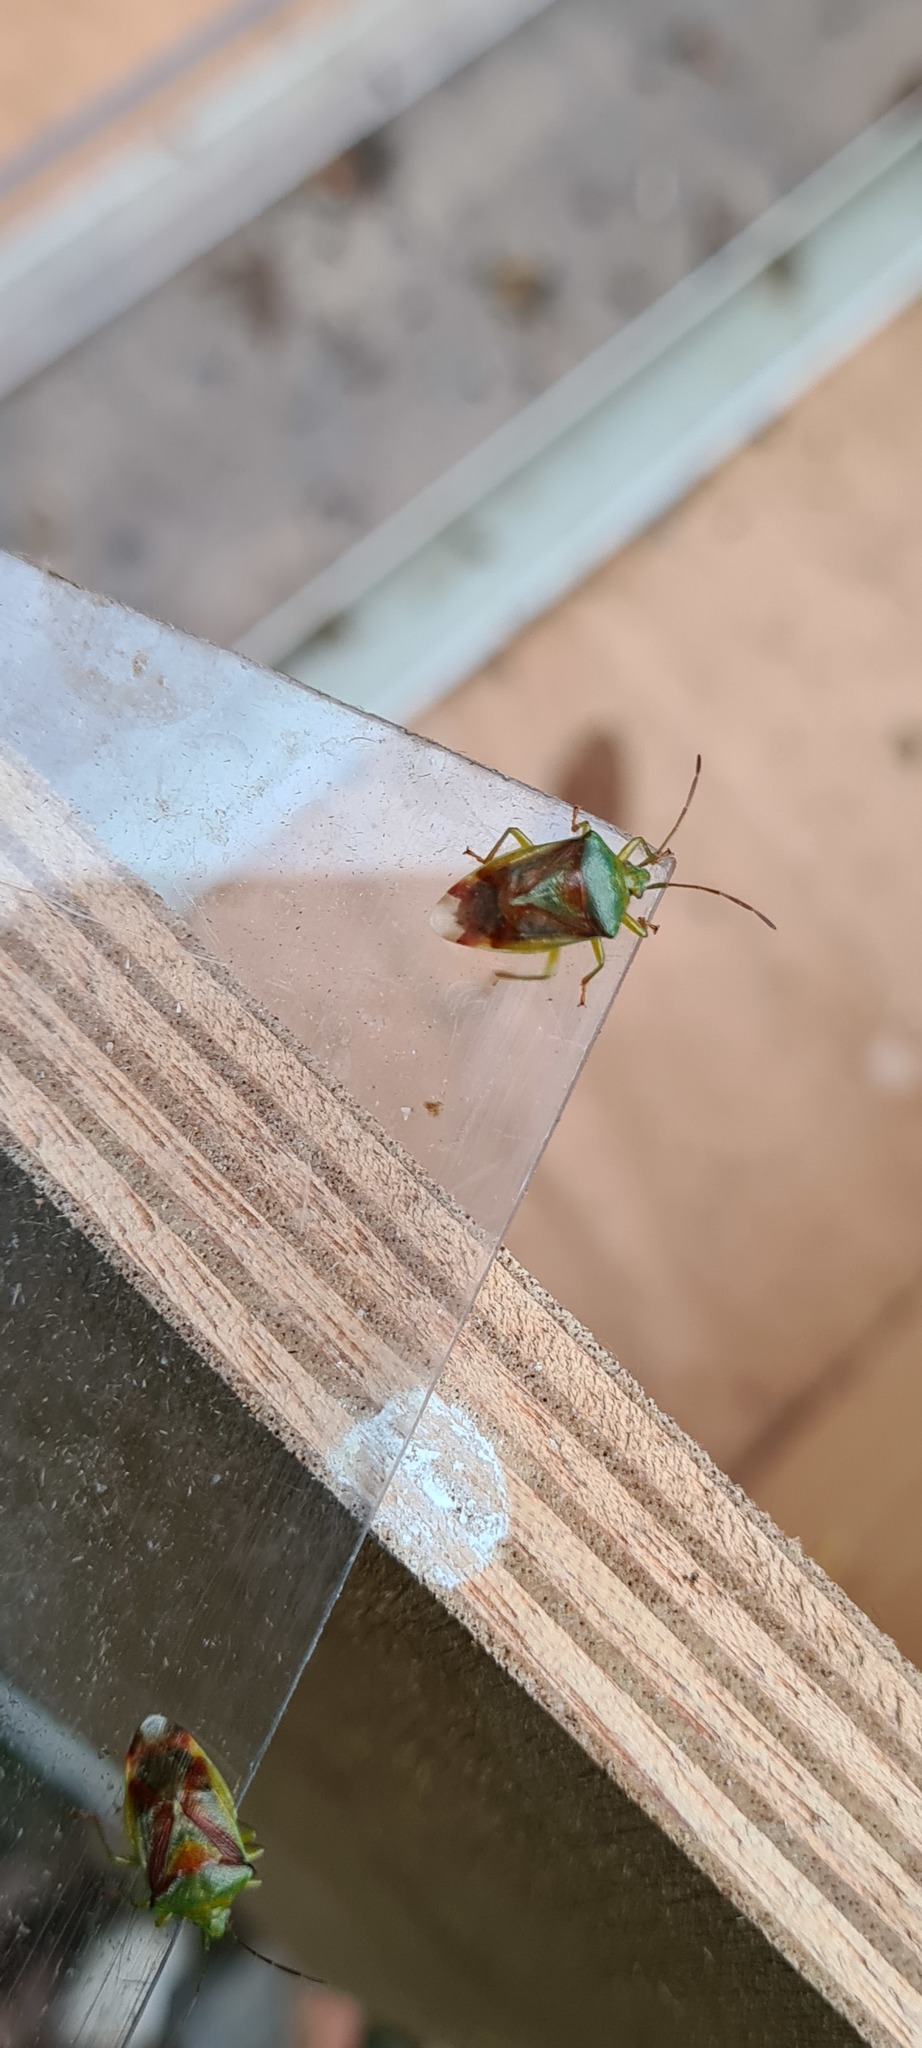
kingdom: Animalia
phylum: Arthropoda
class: Insecta
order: Hemiptera
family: Acanthosomatidae
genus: Elasmostethus
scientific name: Elasmostethus
